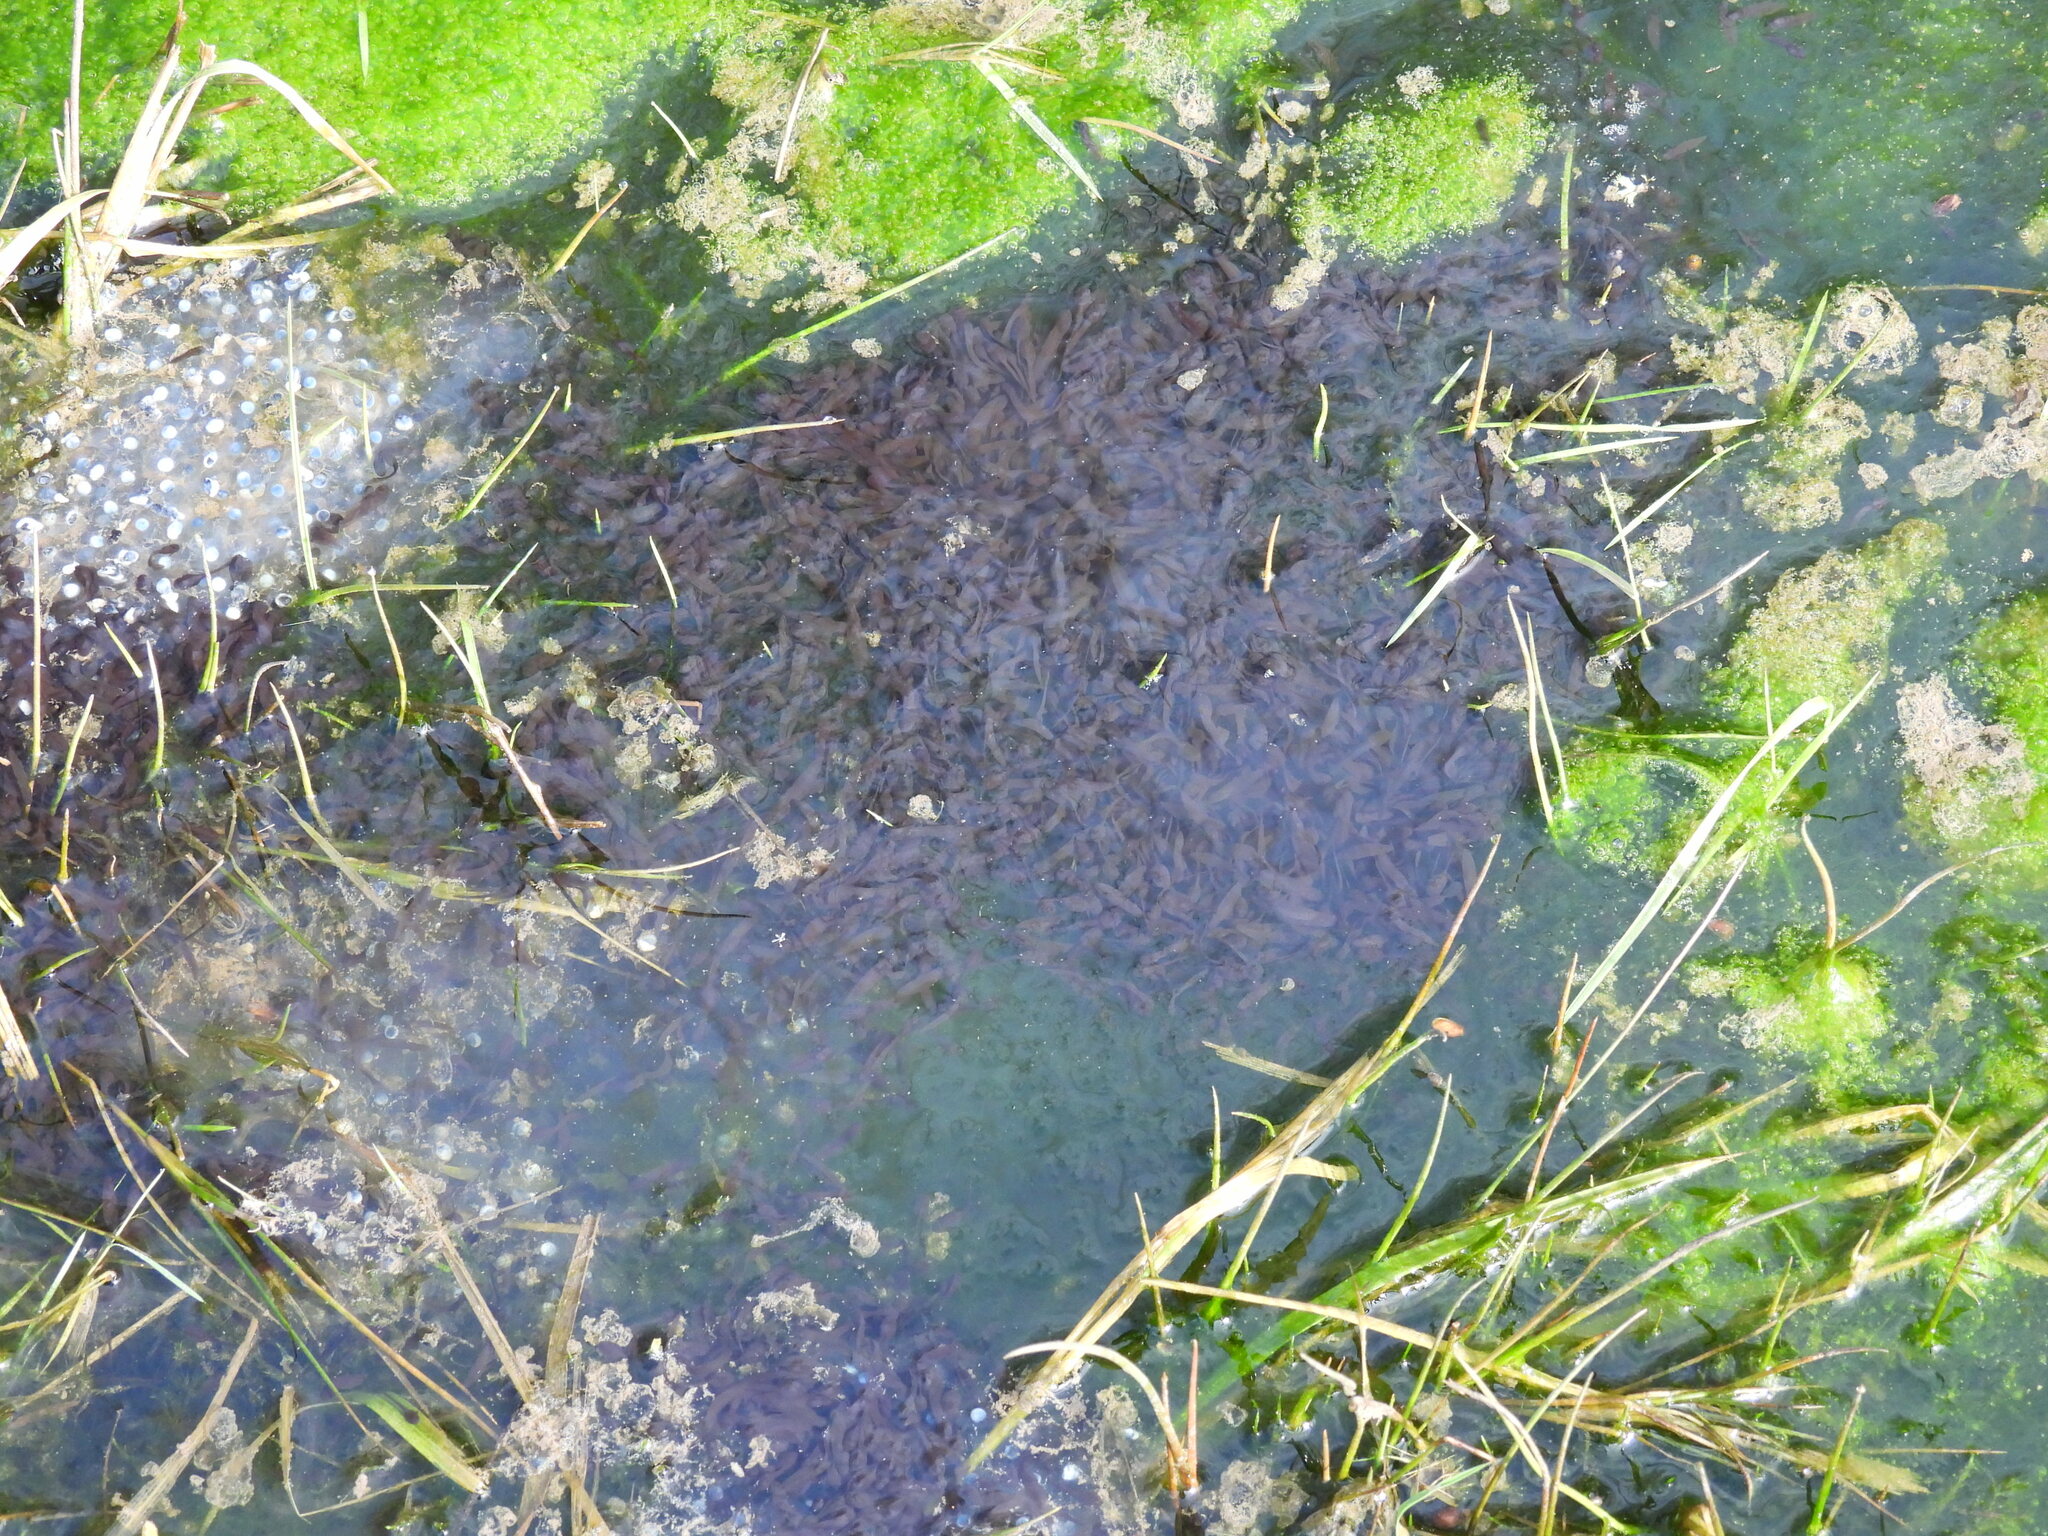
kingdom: Animalia
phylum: Chordata
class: Amphibia
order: Anura
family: Ranidae
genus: Rana
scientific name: Rana temporaria
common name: Common frog
